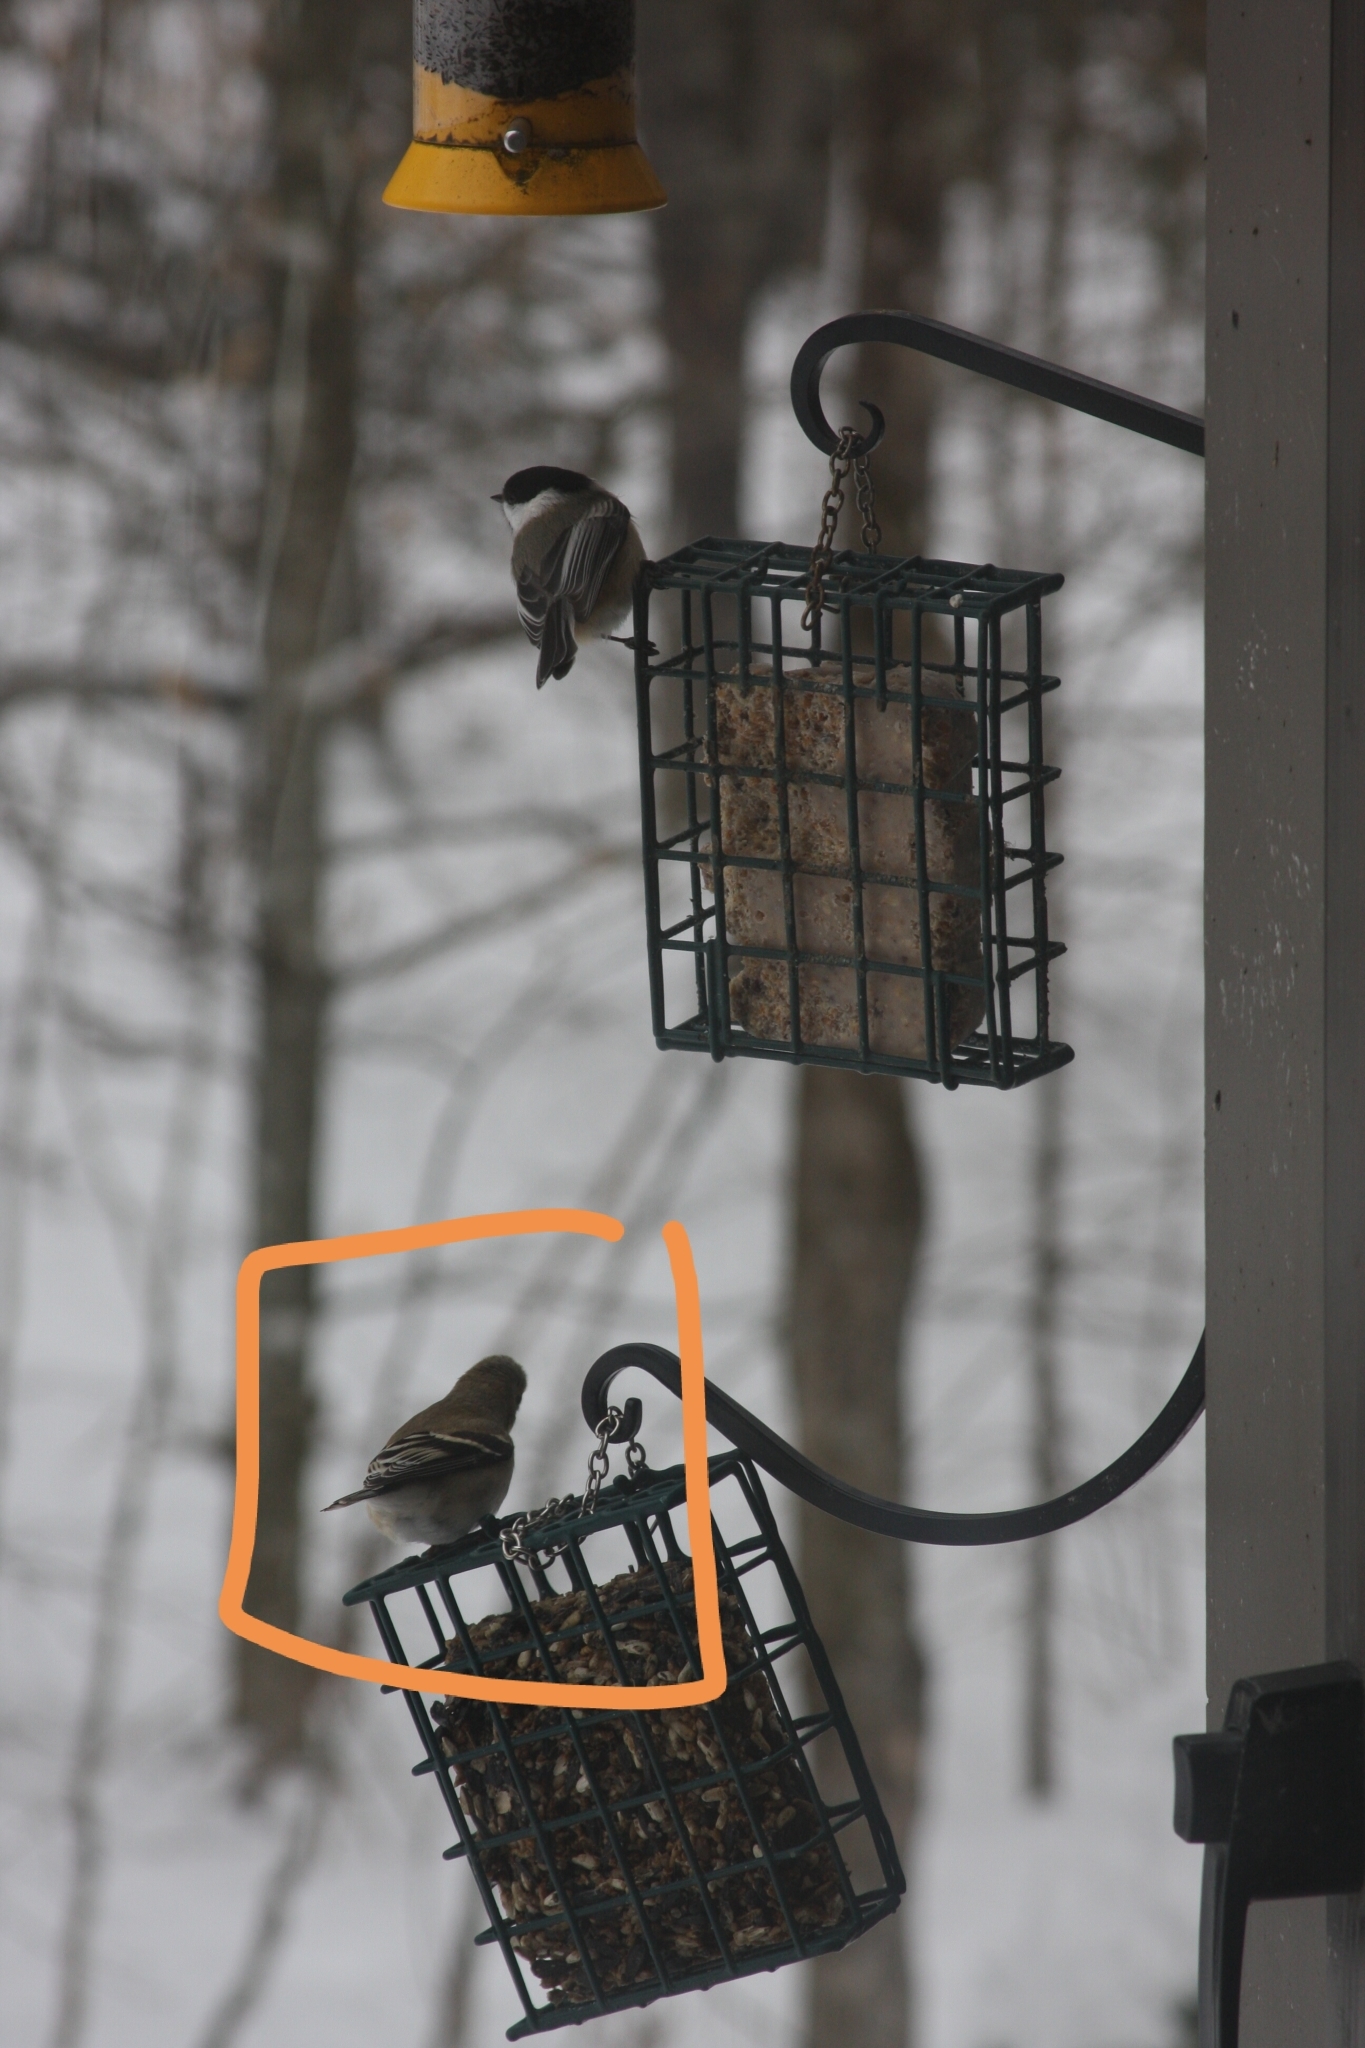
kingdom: Animalia
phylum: Chordata
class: Aves
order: Passeriformes
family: Fringillidae
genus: Spinus
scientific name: Spinus tristis
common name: American goldfinch
